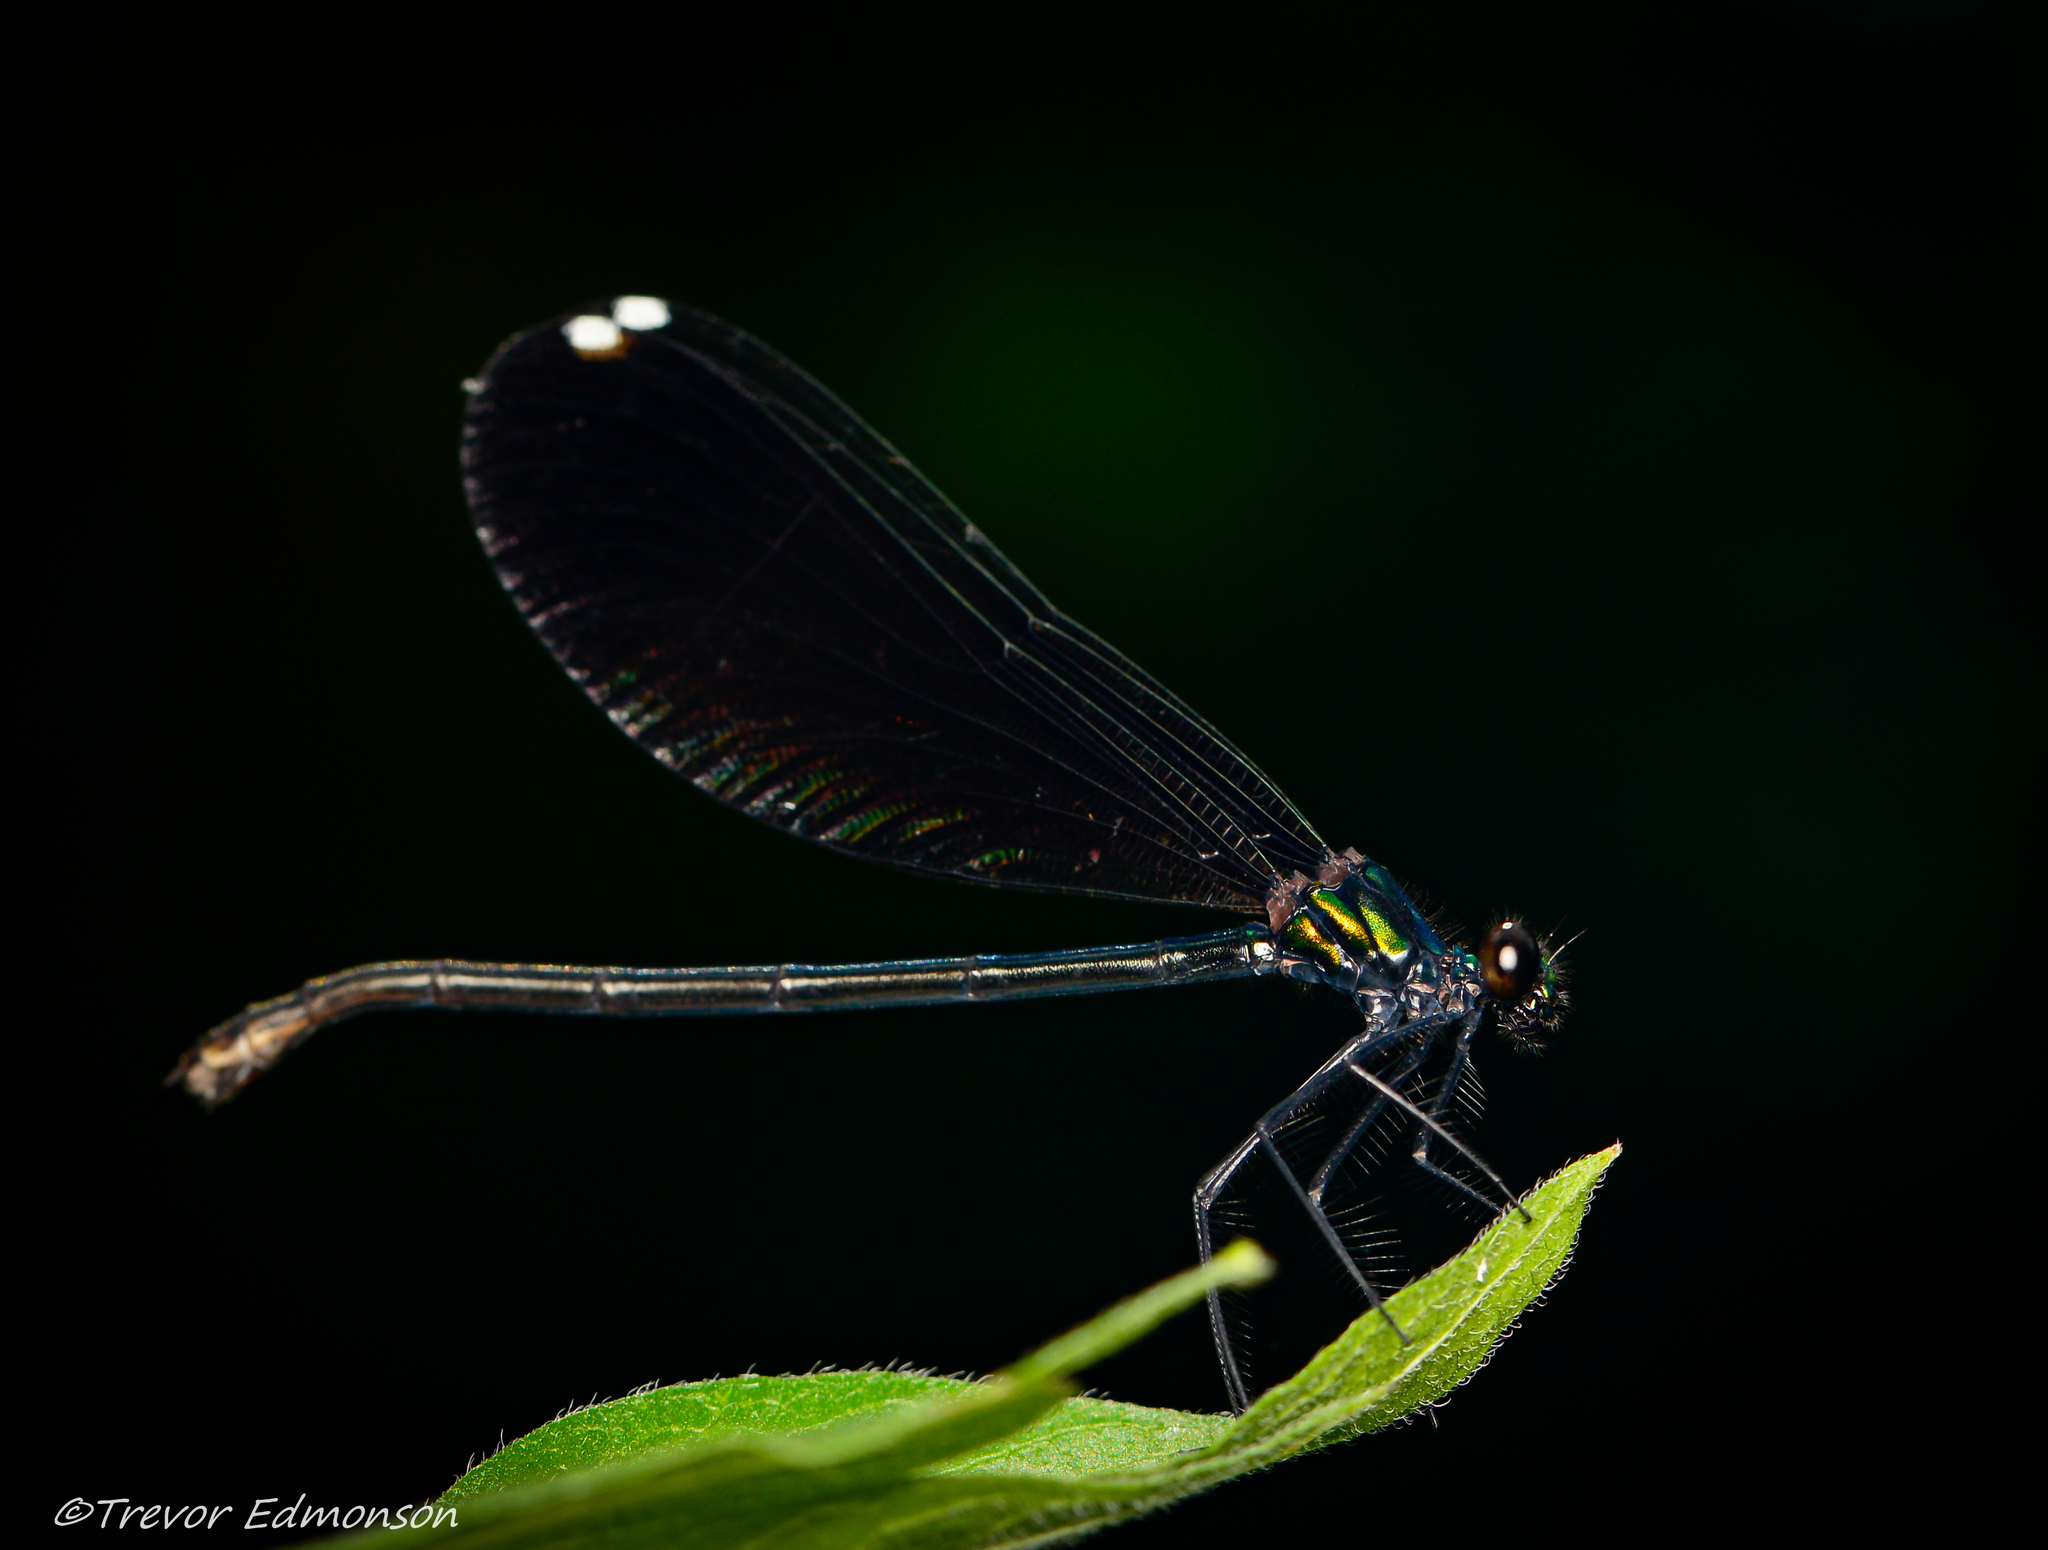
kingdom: Animalia
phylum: Arthropoda
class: Insecta
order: Odonata
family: Calopterygidae
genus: Calopteryx
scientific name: Calopteryx maculata
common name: Ebony jewelwing
